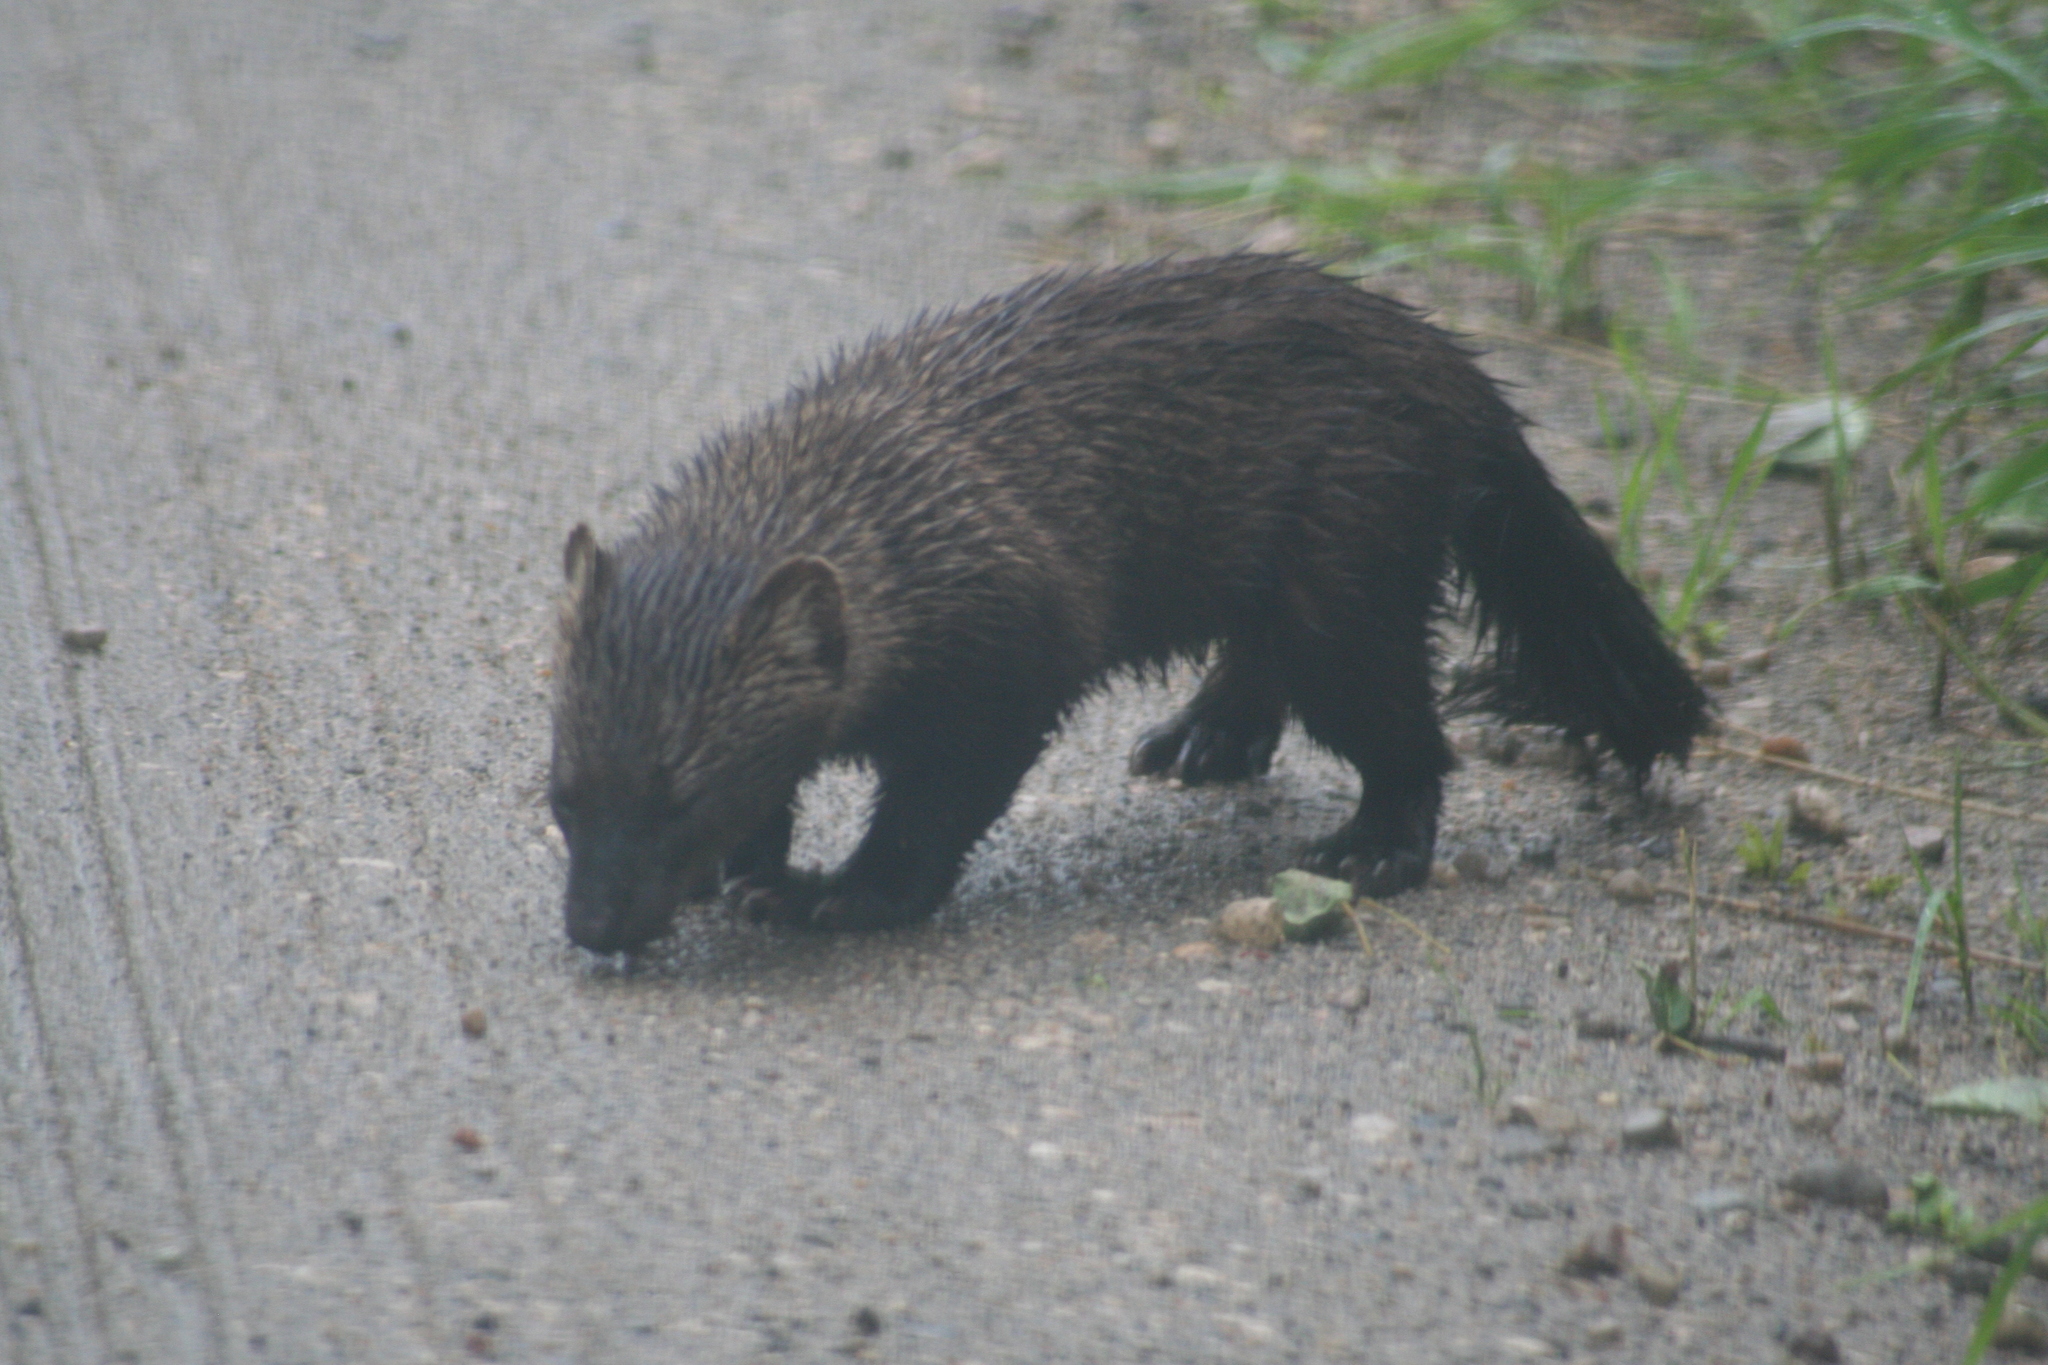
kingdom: Animalia
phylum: Chordata
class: Mammalia
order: Carnivora
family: Mustelidae
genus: Pekania
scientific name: Pekania pennanti
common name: Fisher
